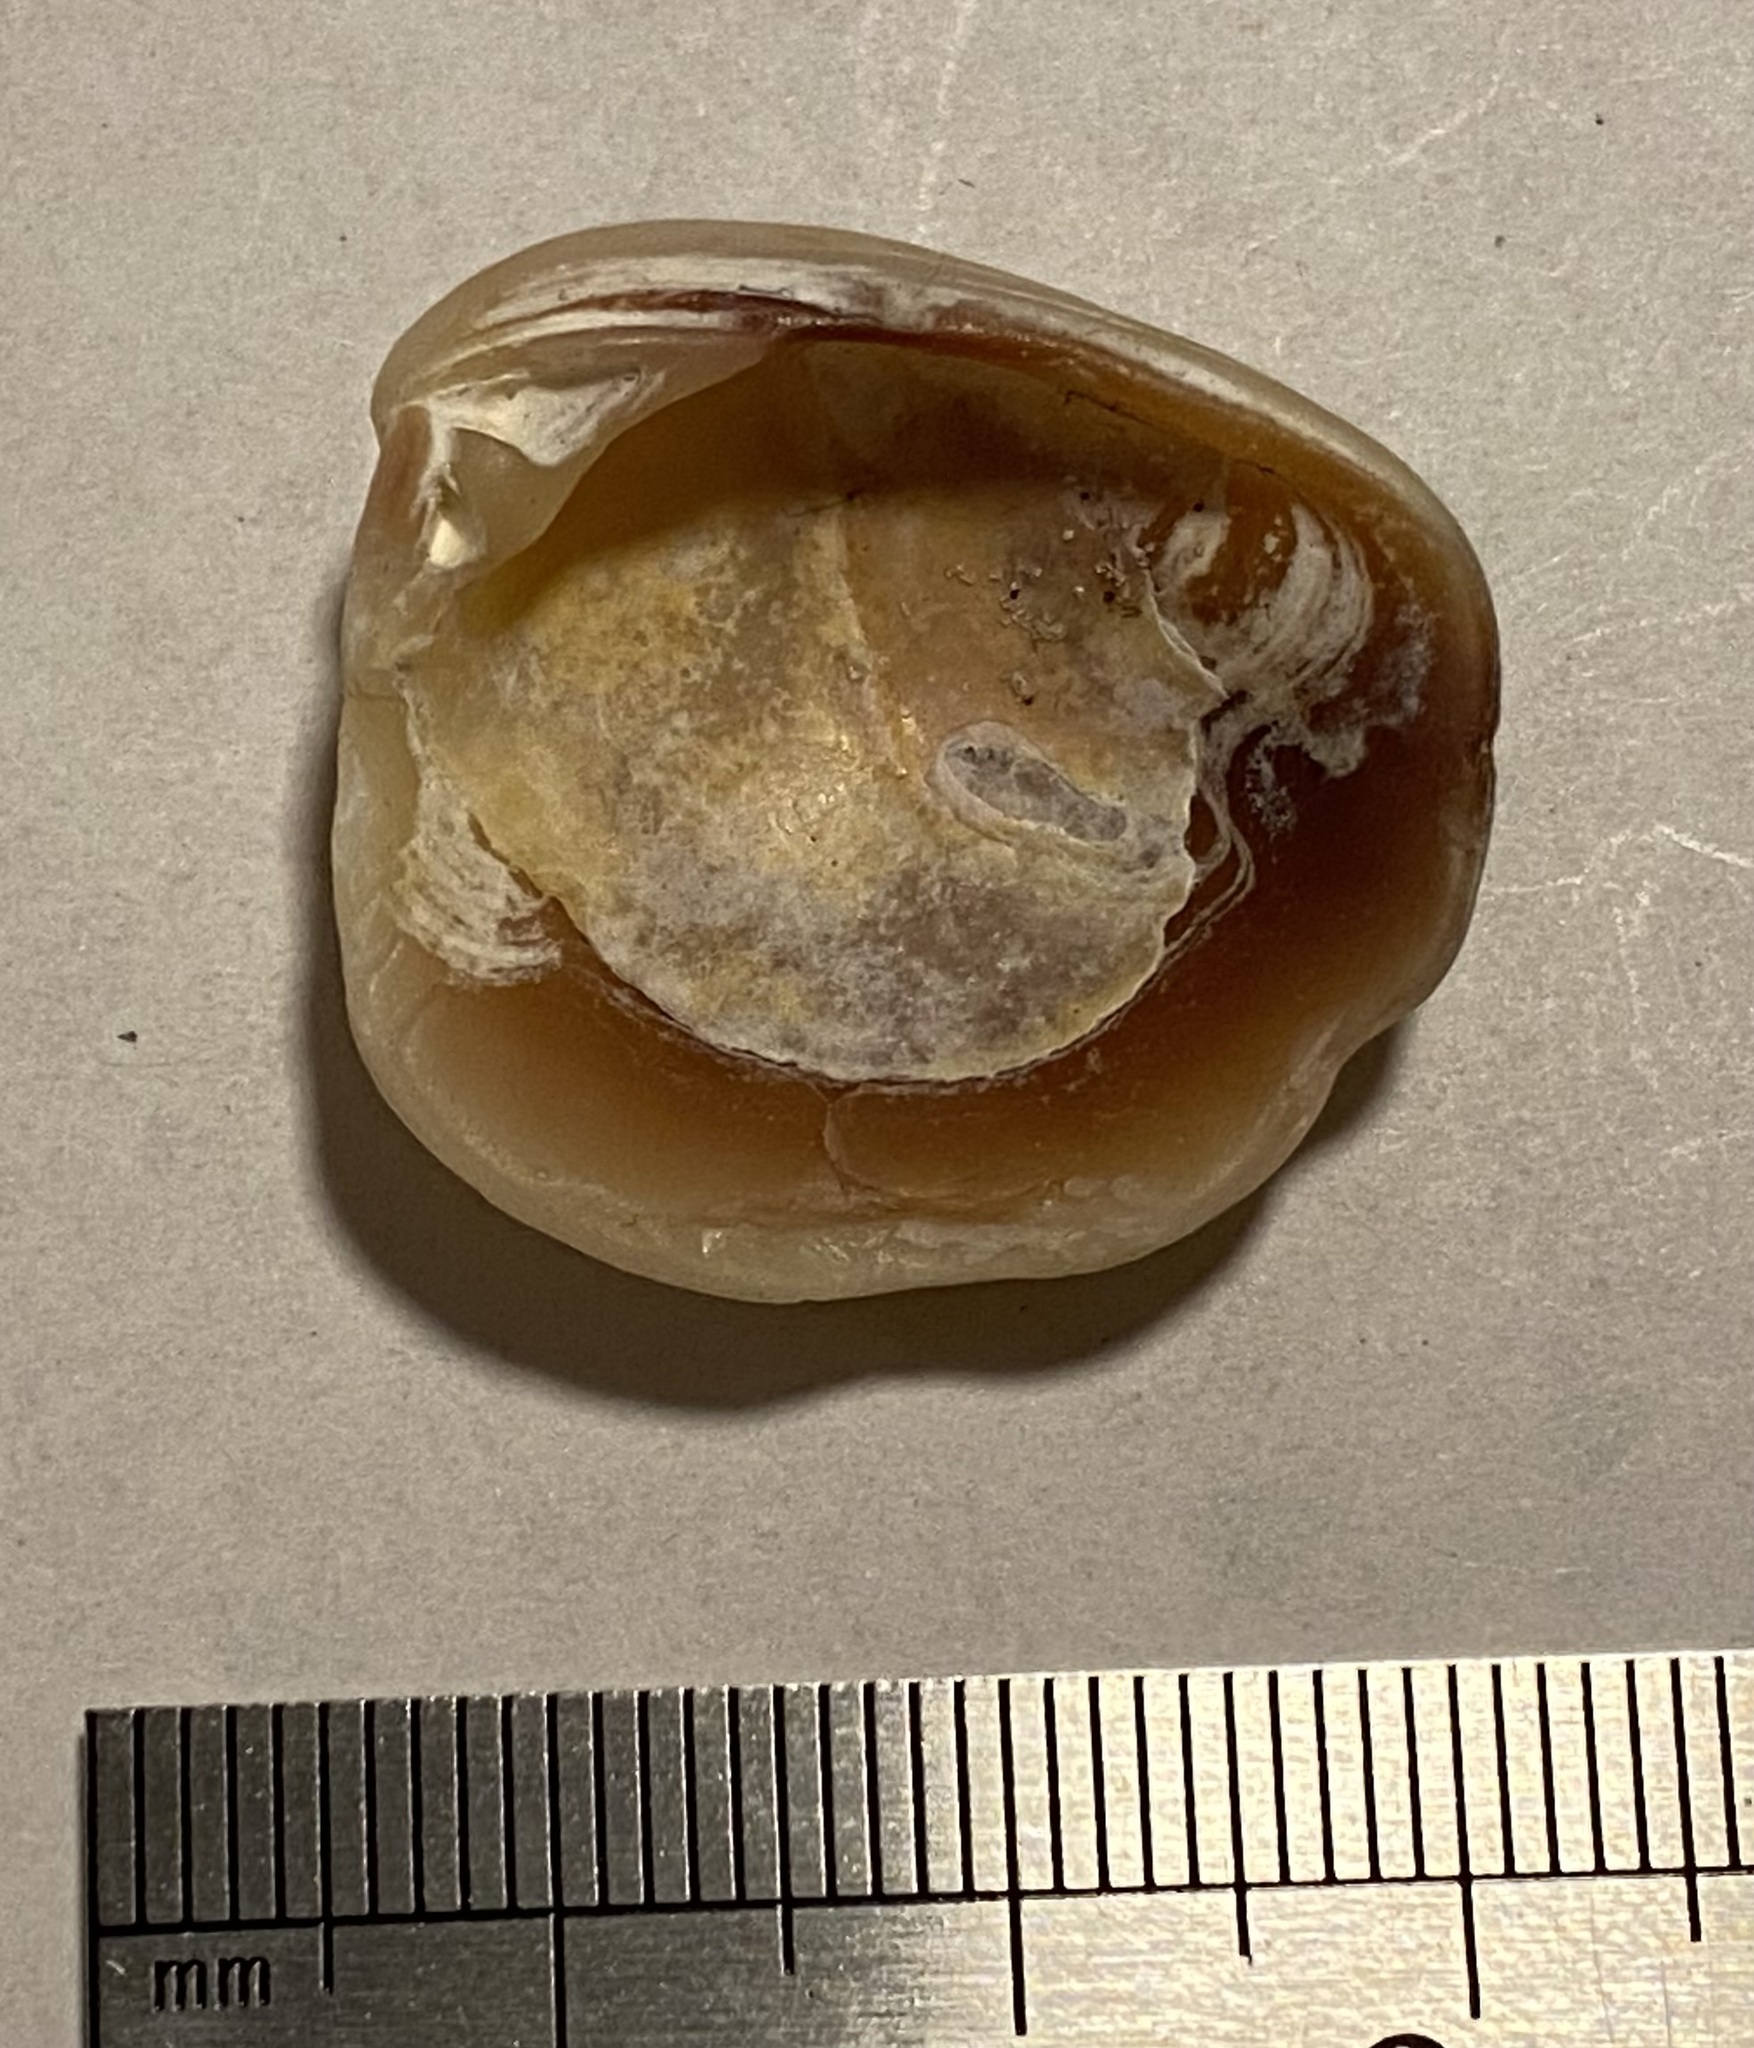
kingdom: Animalia
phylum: Mollusca
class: Bivalvia
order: Venerida
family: Veneridae
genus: Chione
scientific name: Chione elevata
